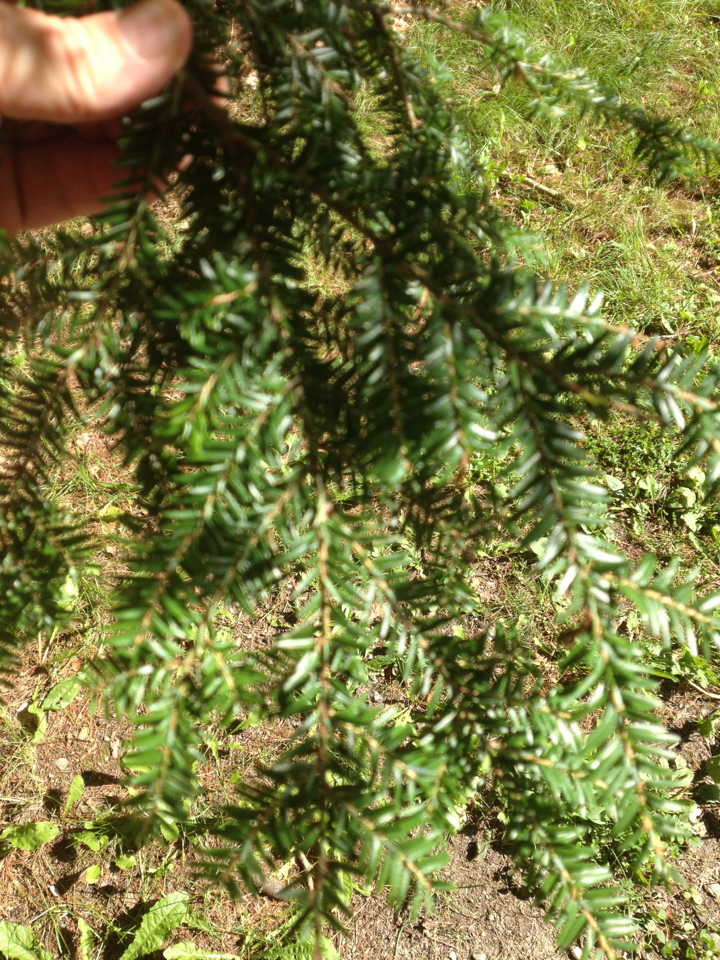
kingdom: Plantae
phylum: Tracheophyta
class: Pinopsida
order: Pinales
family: Pinaceae
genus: Tsuga
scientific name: Tsuga canadensis
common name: Eastern hemlock
